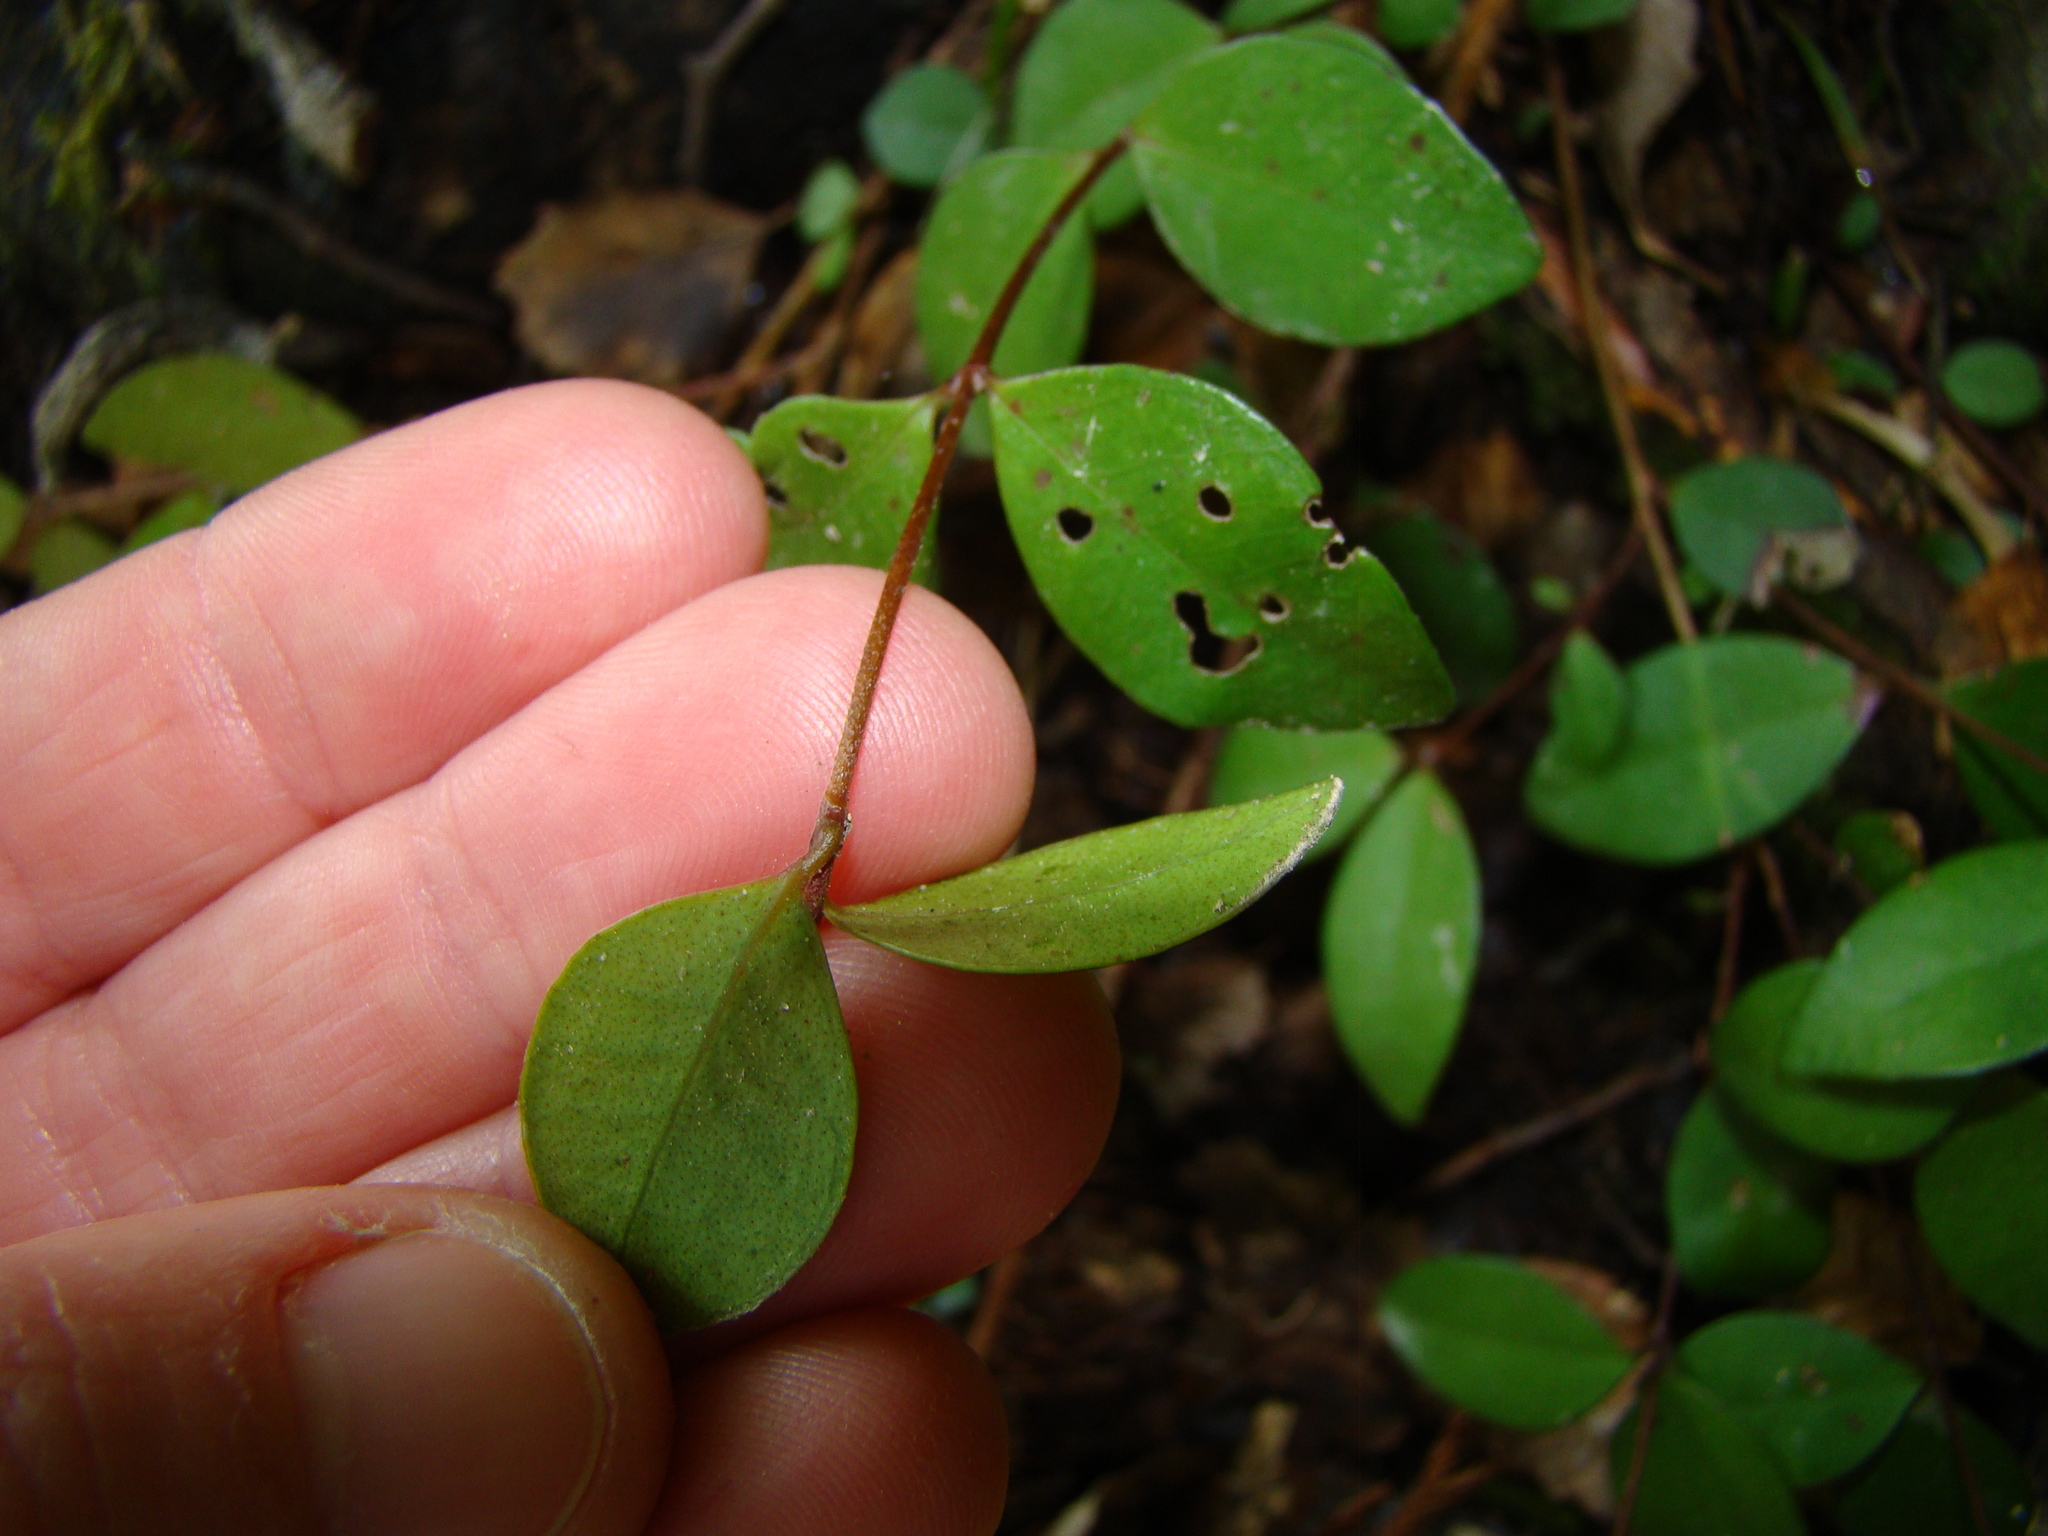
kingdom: Plantae
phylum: Tracheophyta
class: Magnoliopsida
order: Myrtales
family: Myrtaceae
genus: Metrosideros
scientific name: Metrosideros fulgens
